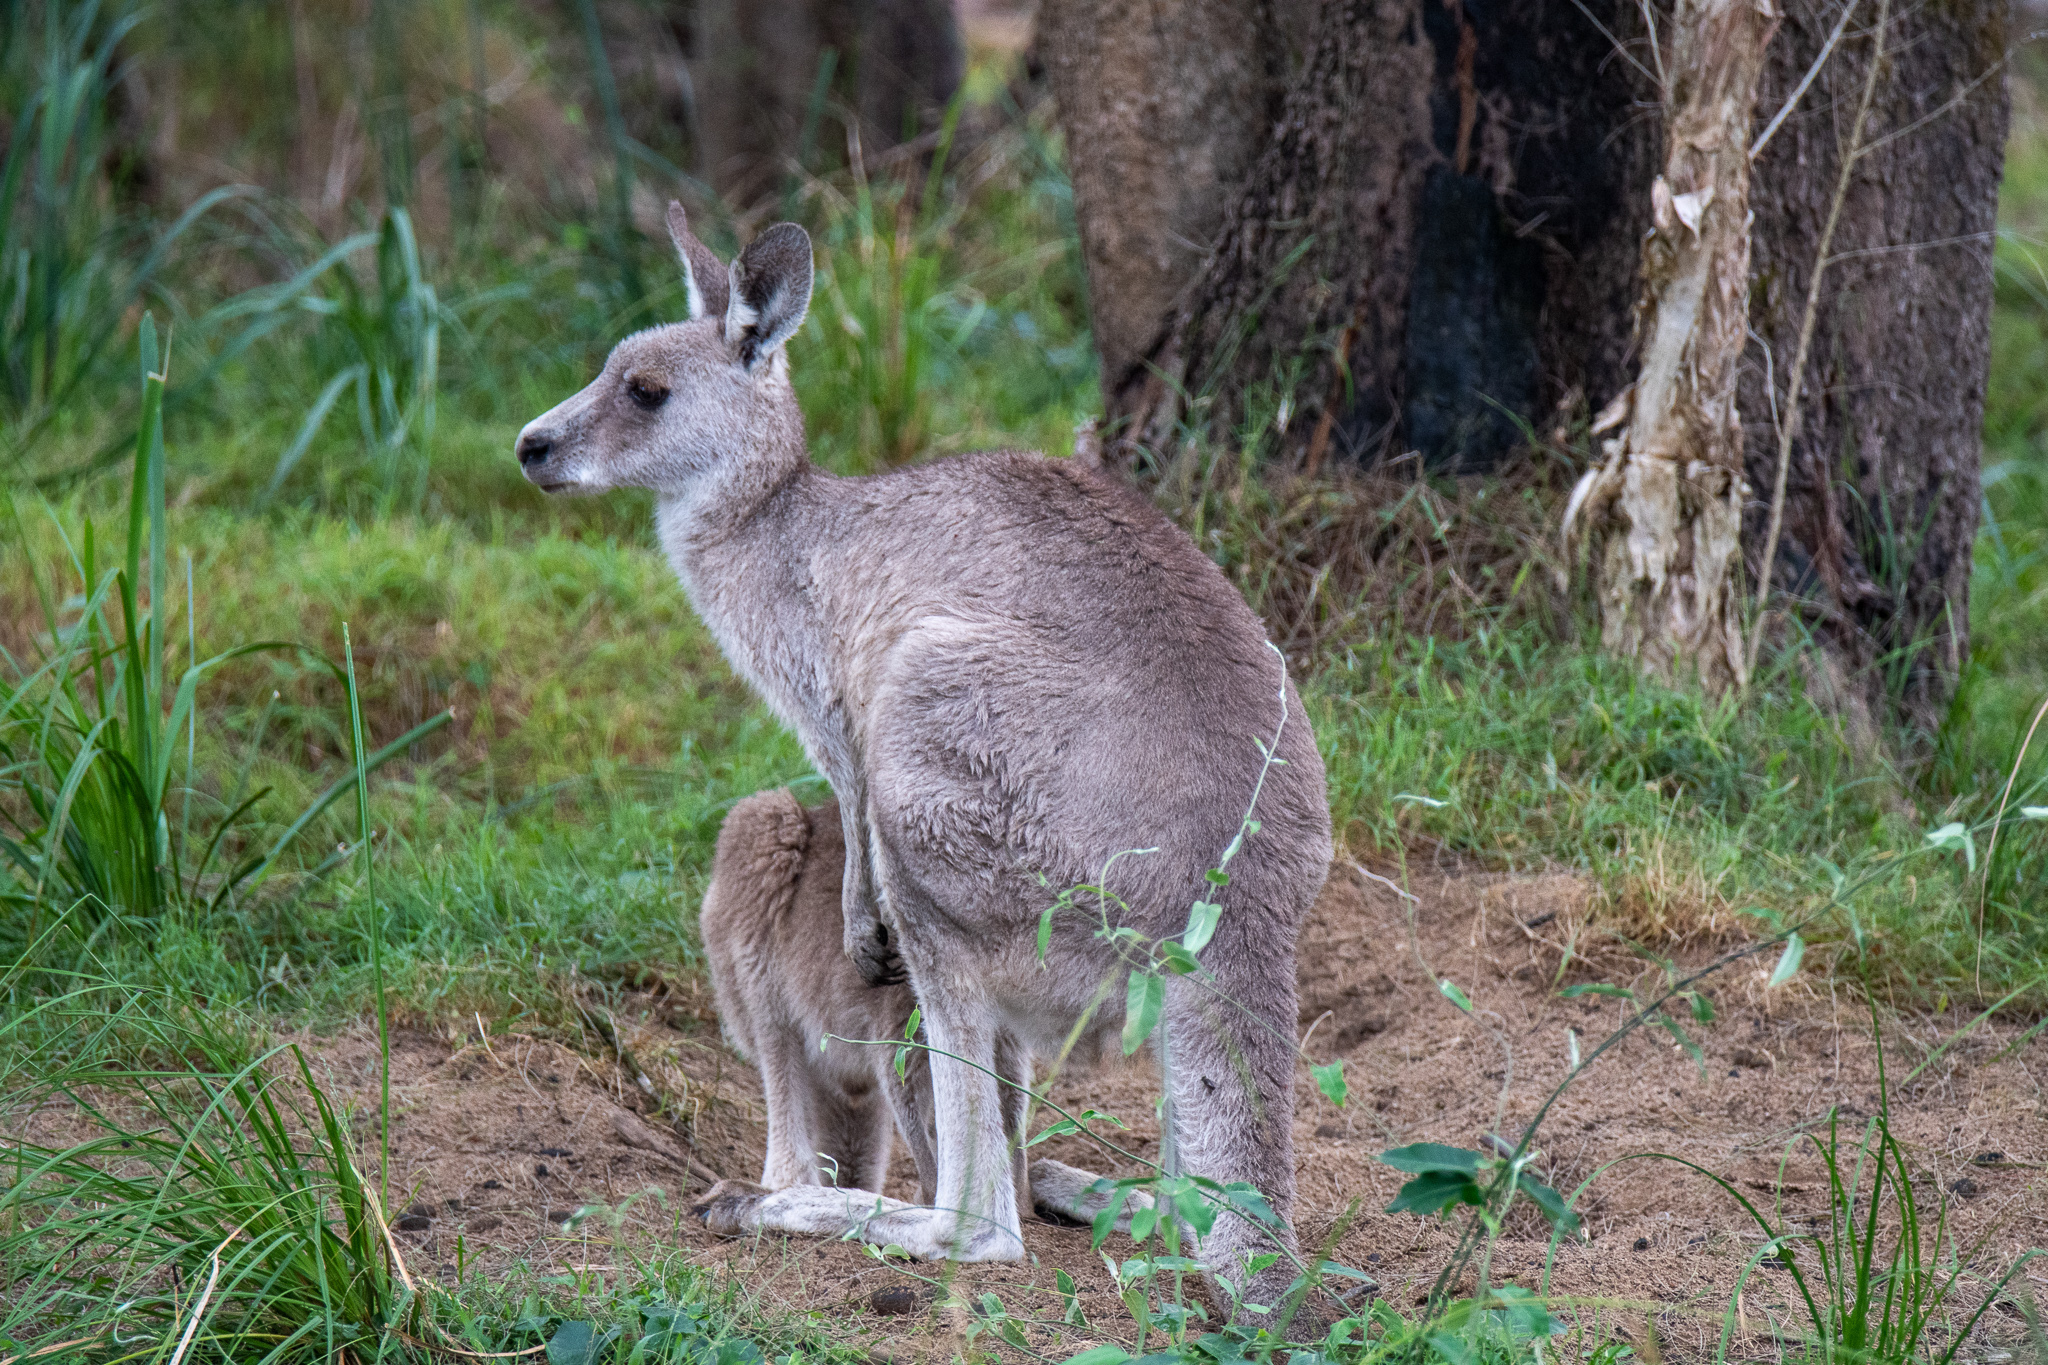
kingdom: Animalia
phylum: Chordata
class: Mammalia
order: Diprotodontia
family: Macropodidae
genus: Macropus
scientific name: Macropus giganteus
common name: Eastern grey kangaroo
